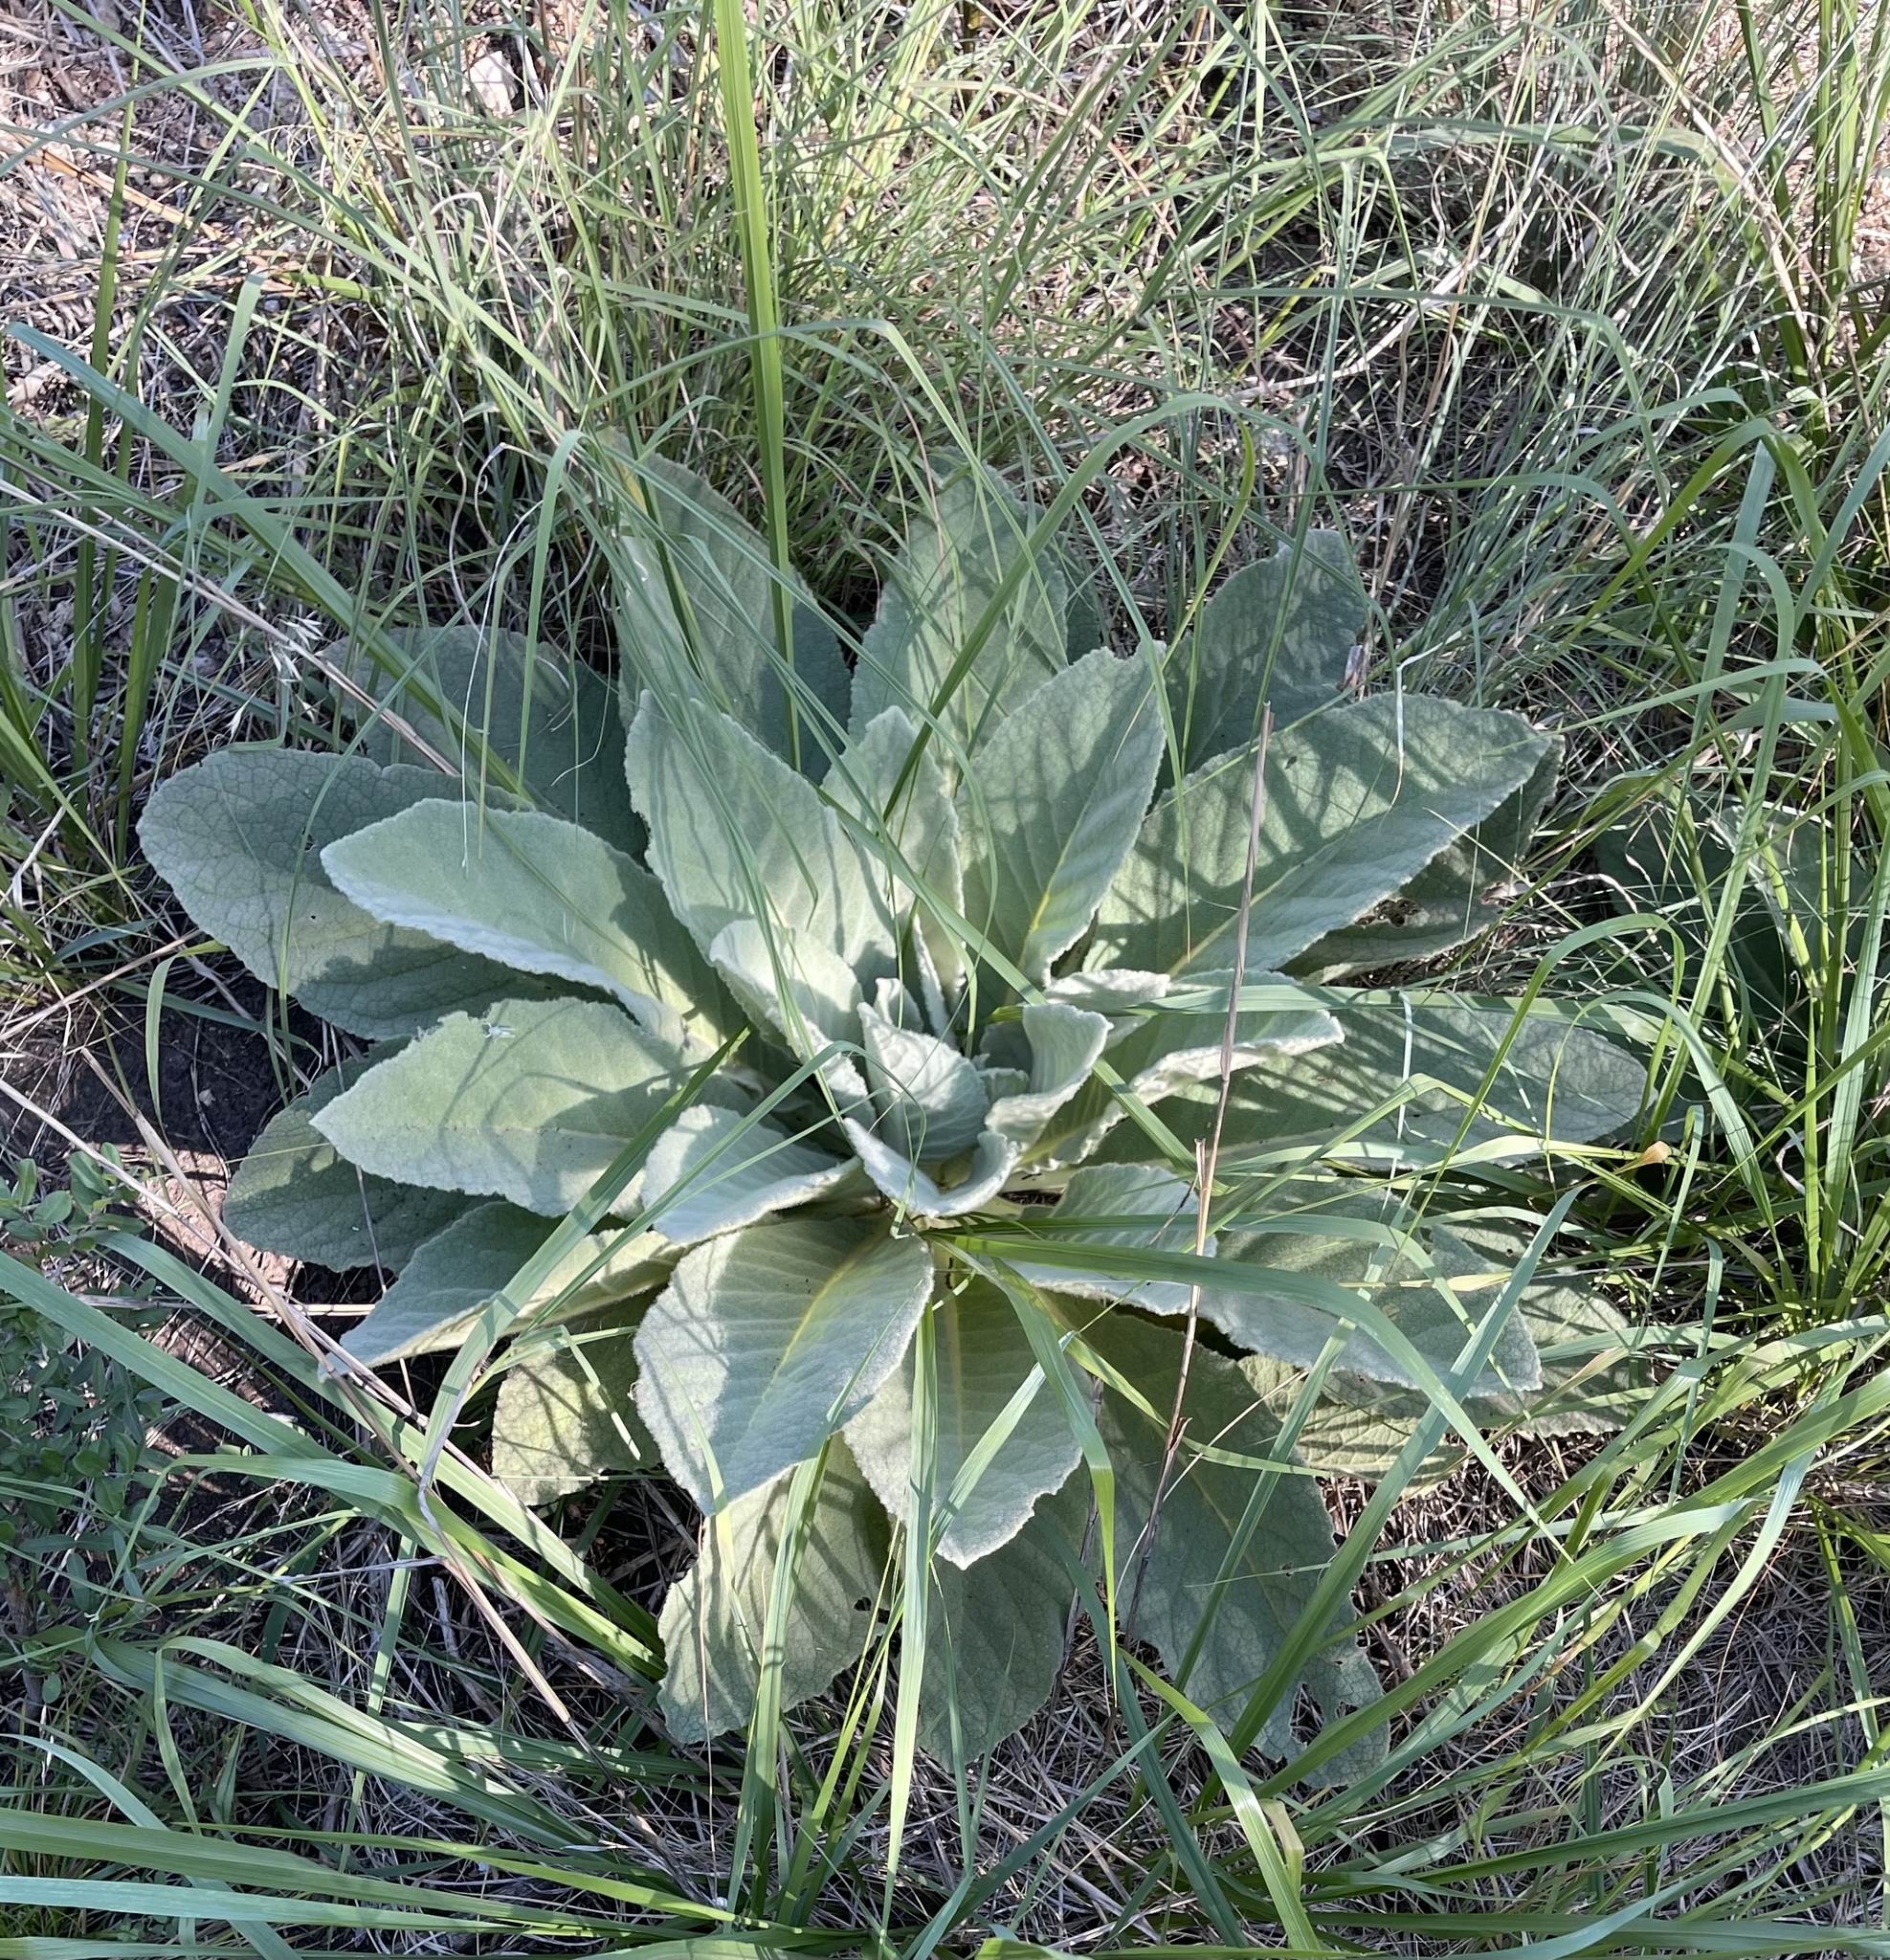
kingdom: Plantae
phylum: Tracheophyta
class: Magnoliopsida
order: Lamiales
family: Scrophulariaceae
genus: Verbascum
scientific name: Verbascum thapsus
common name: Common mullein
